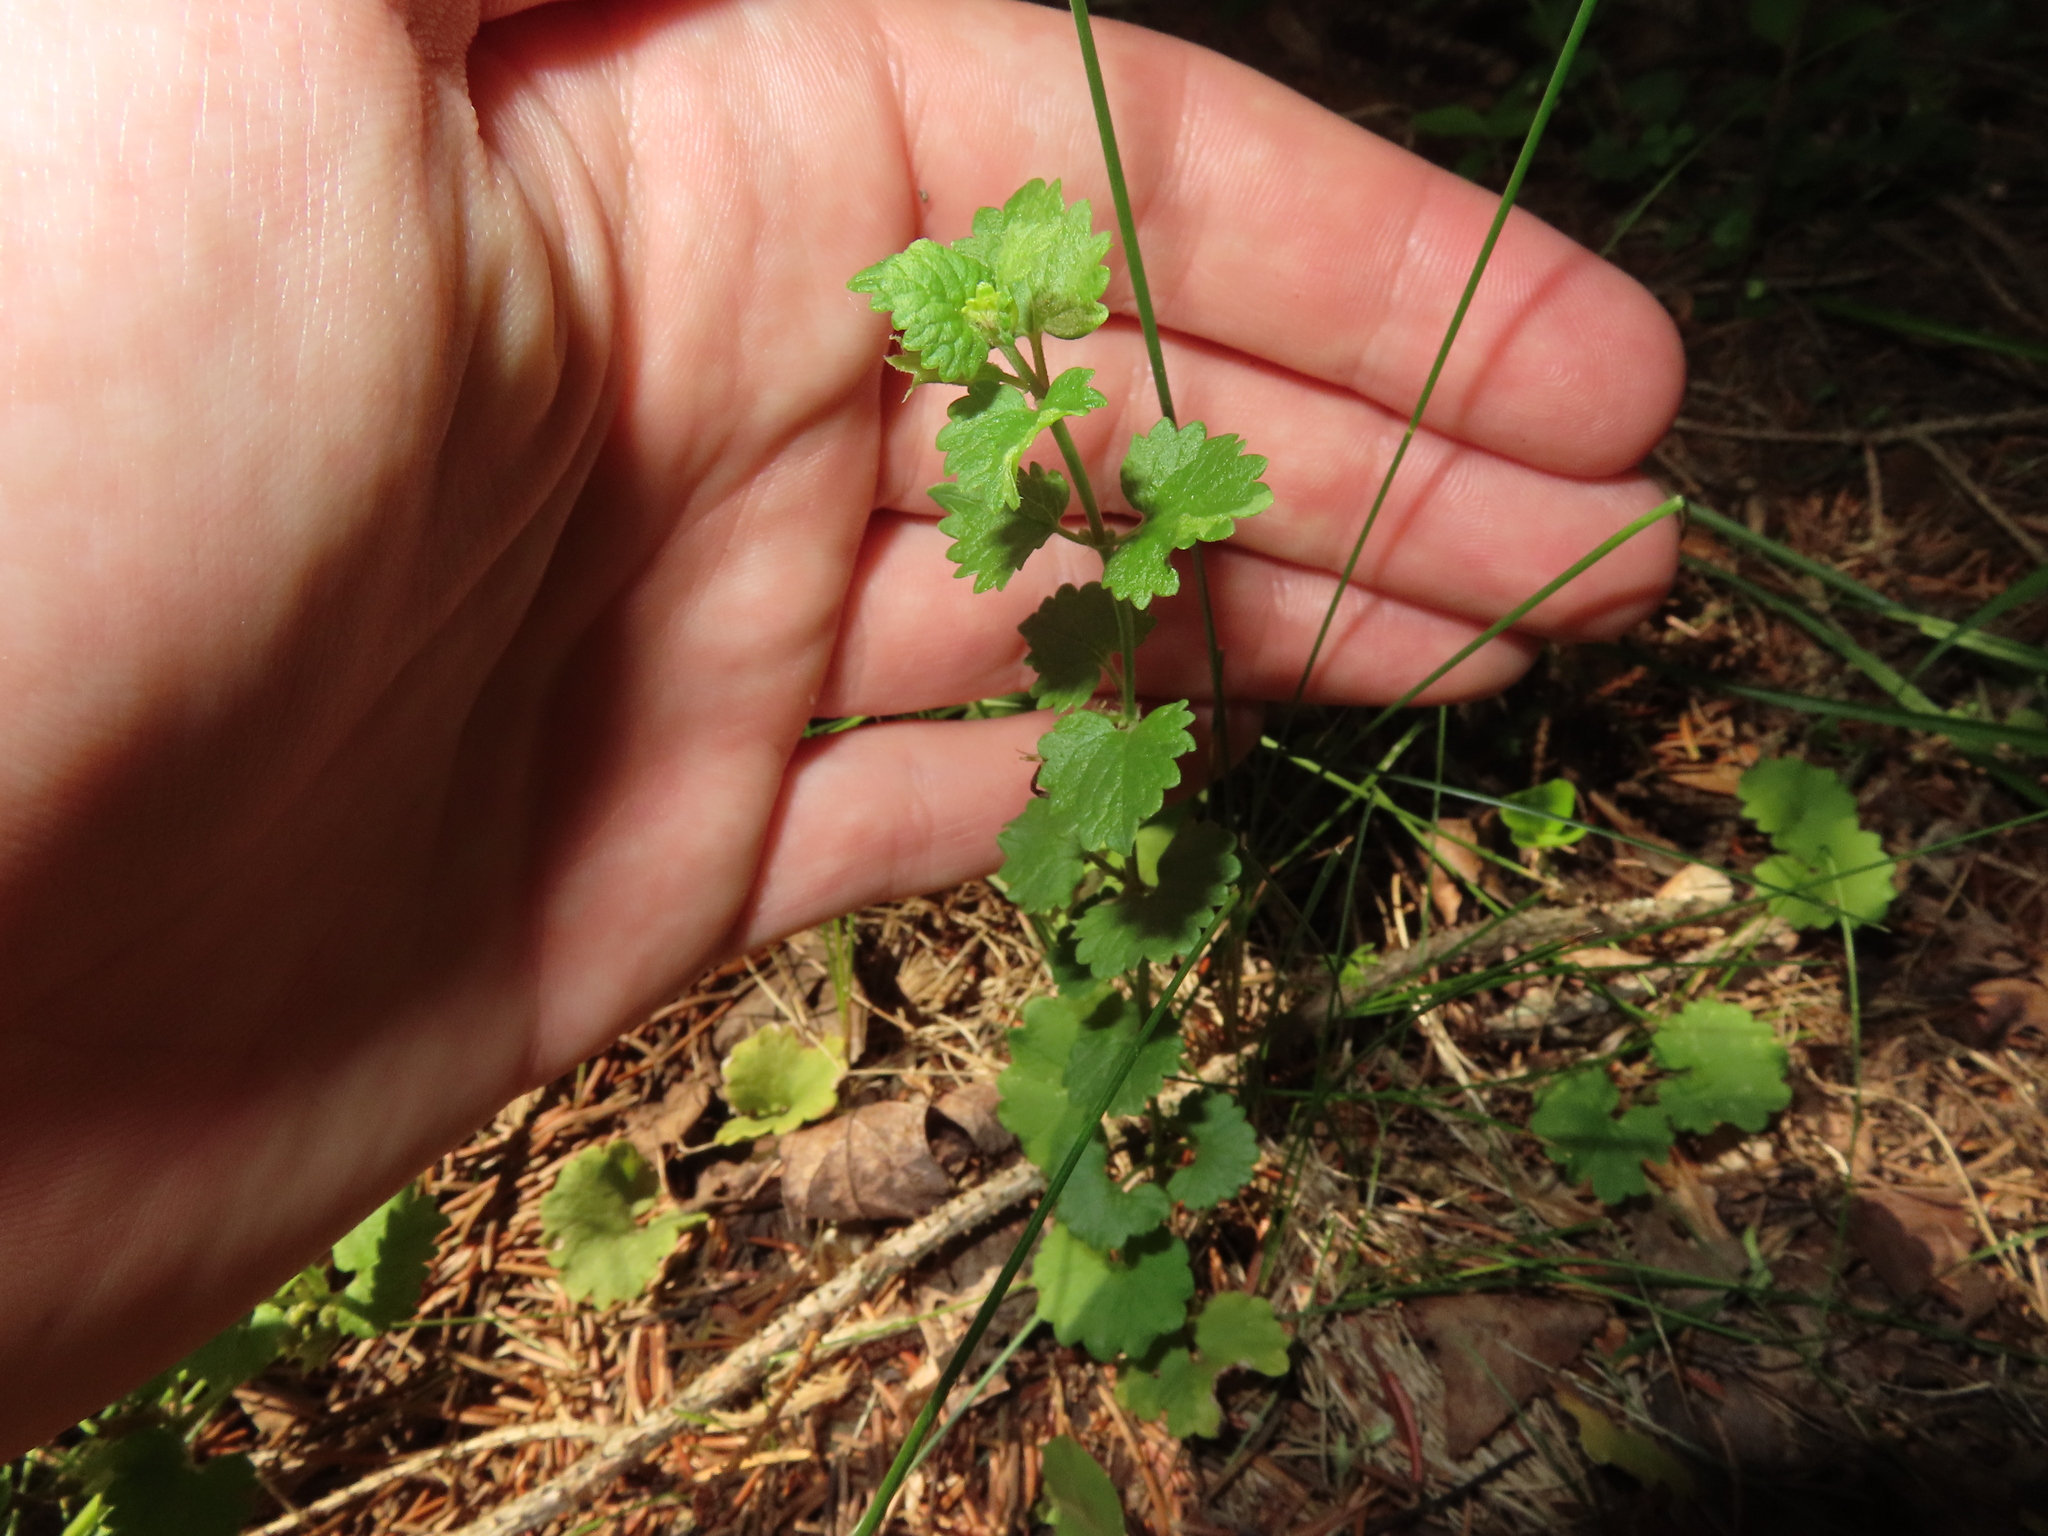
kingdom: Plantae
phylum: Tracheophyta
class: Magnoliopsida
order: Lamiales
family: Lamiaceae
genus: Glechoma
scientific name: Glechoma hederacea
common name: Ground ivy
